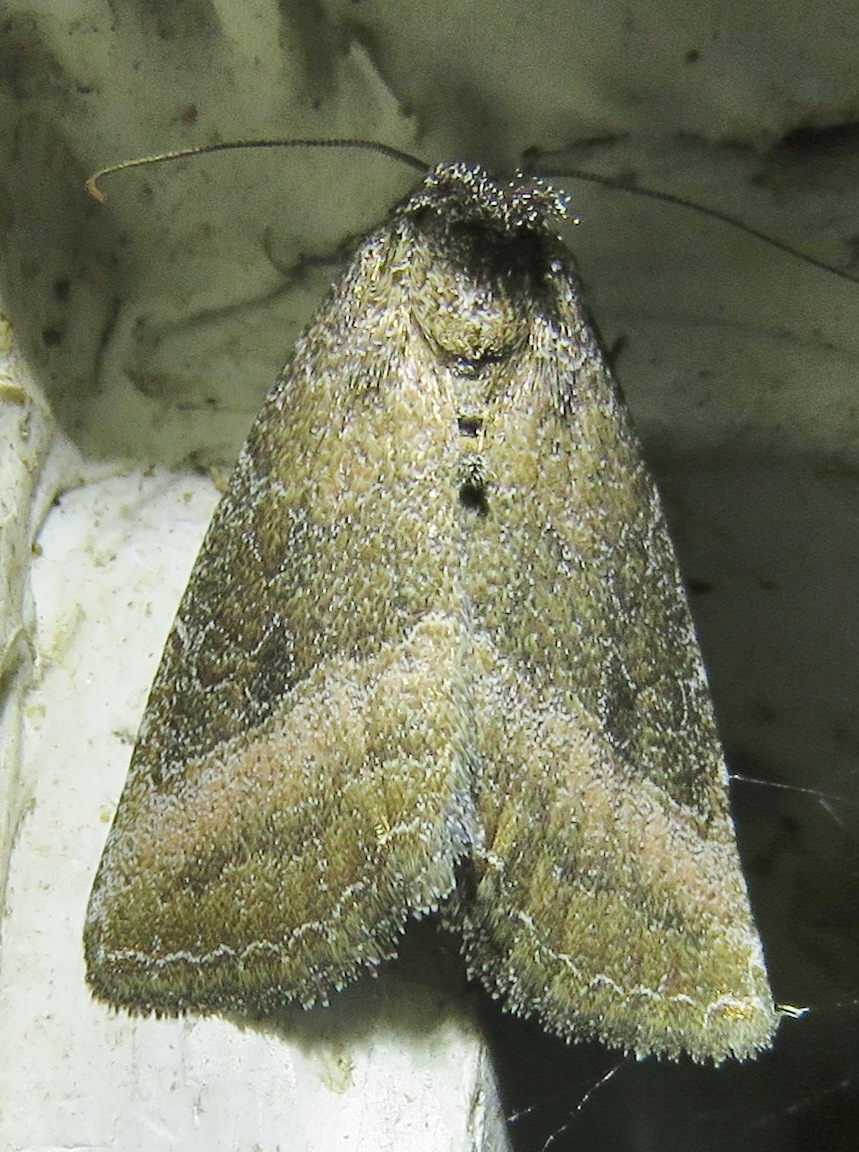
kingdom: Animalia
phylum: Arthropoda
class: Insecta
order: Lepidoptera
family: Noctuidae
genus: Ogdoconta
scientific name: Ogdoconta cinereola
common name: Common pinkband
